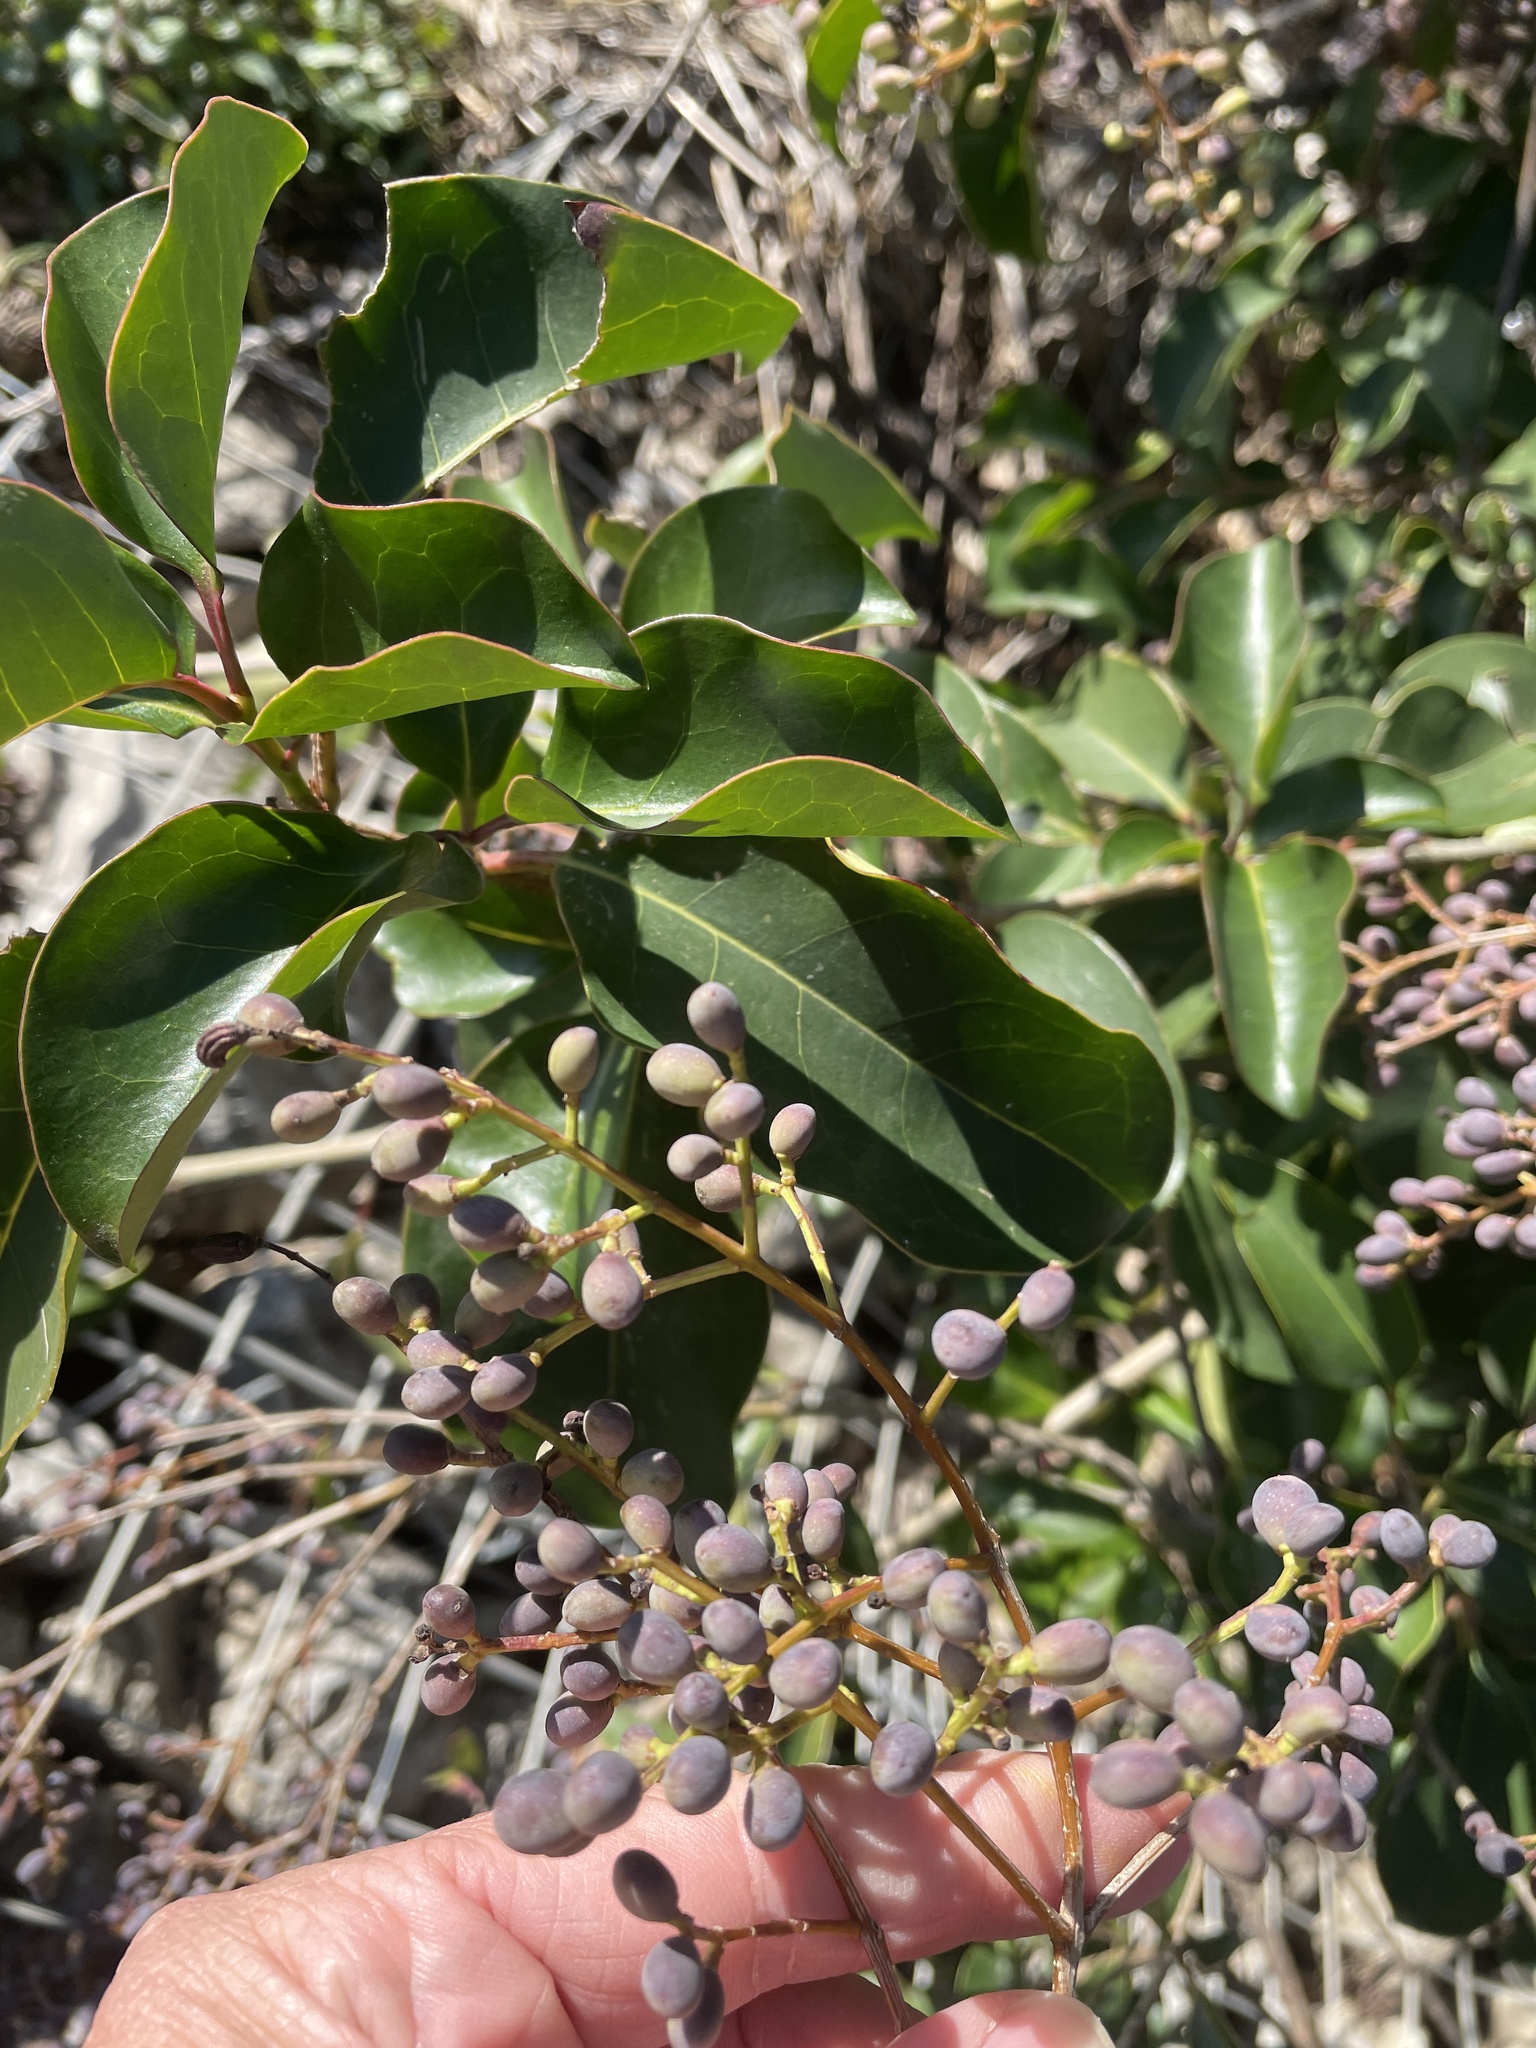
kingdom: Plantae
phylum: Tracheophyta
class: Magnoliopsida
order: Lamiales
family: Oleaceae
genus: Ligustrum
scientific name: Ligustrum lucidum
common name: Glossy privet
